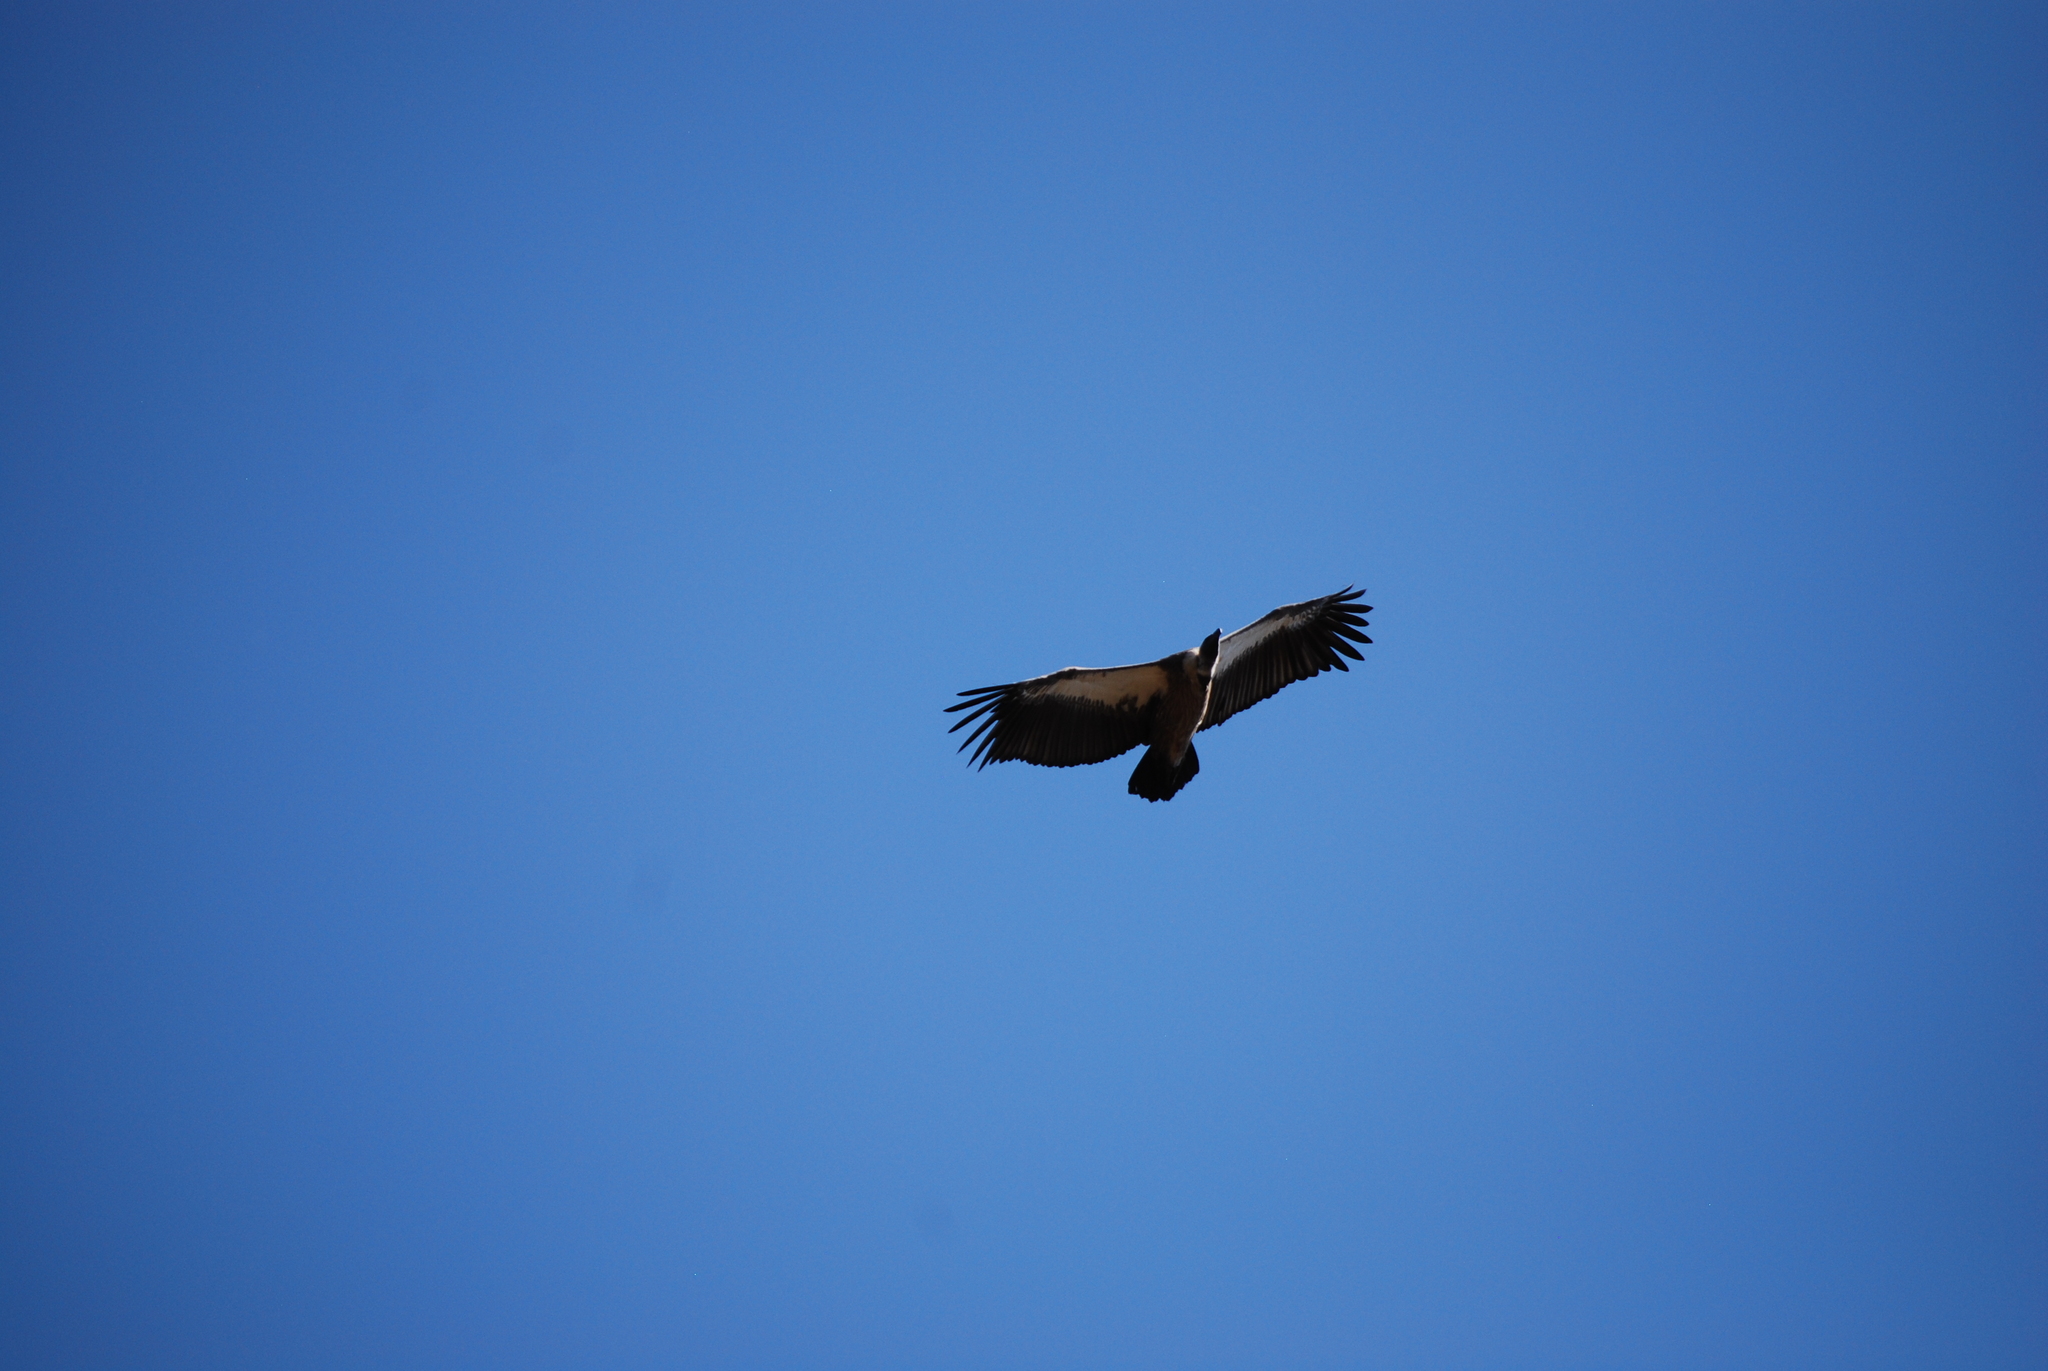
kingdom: Animalia
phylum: Chordata
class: Aves
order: Accipitriformes
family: Accipitridae
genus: Gyps
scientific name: Gyps africanus
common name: White-backed vulture
